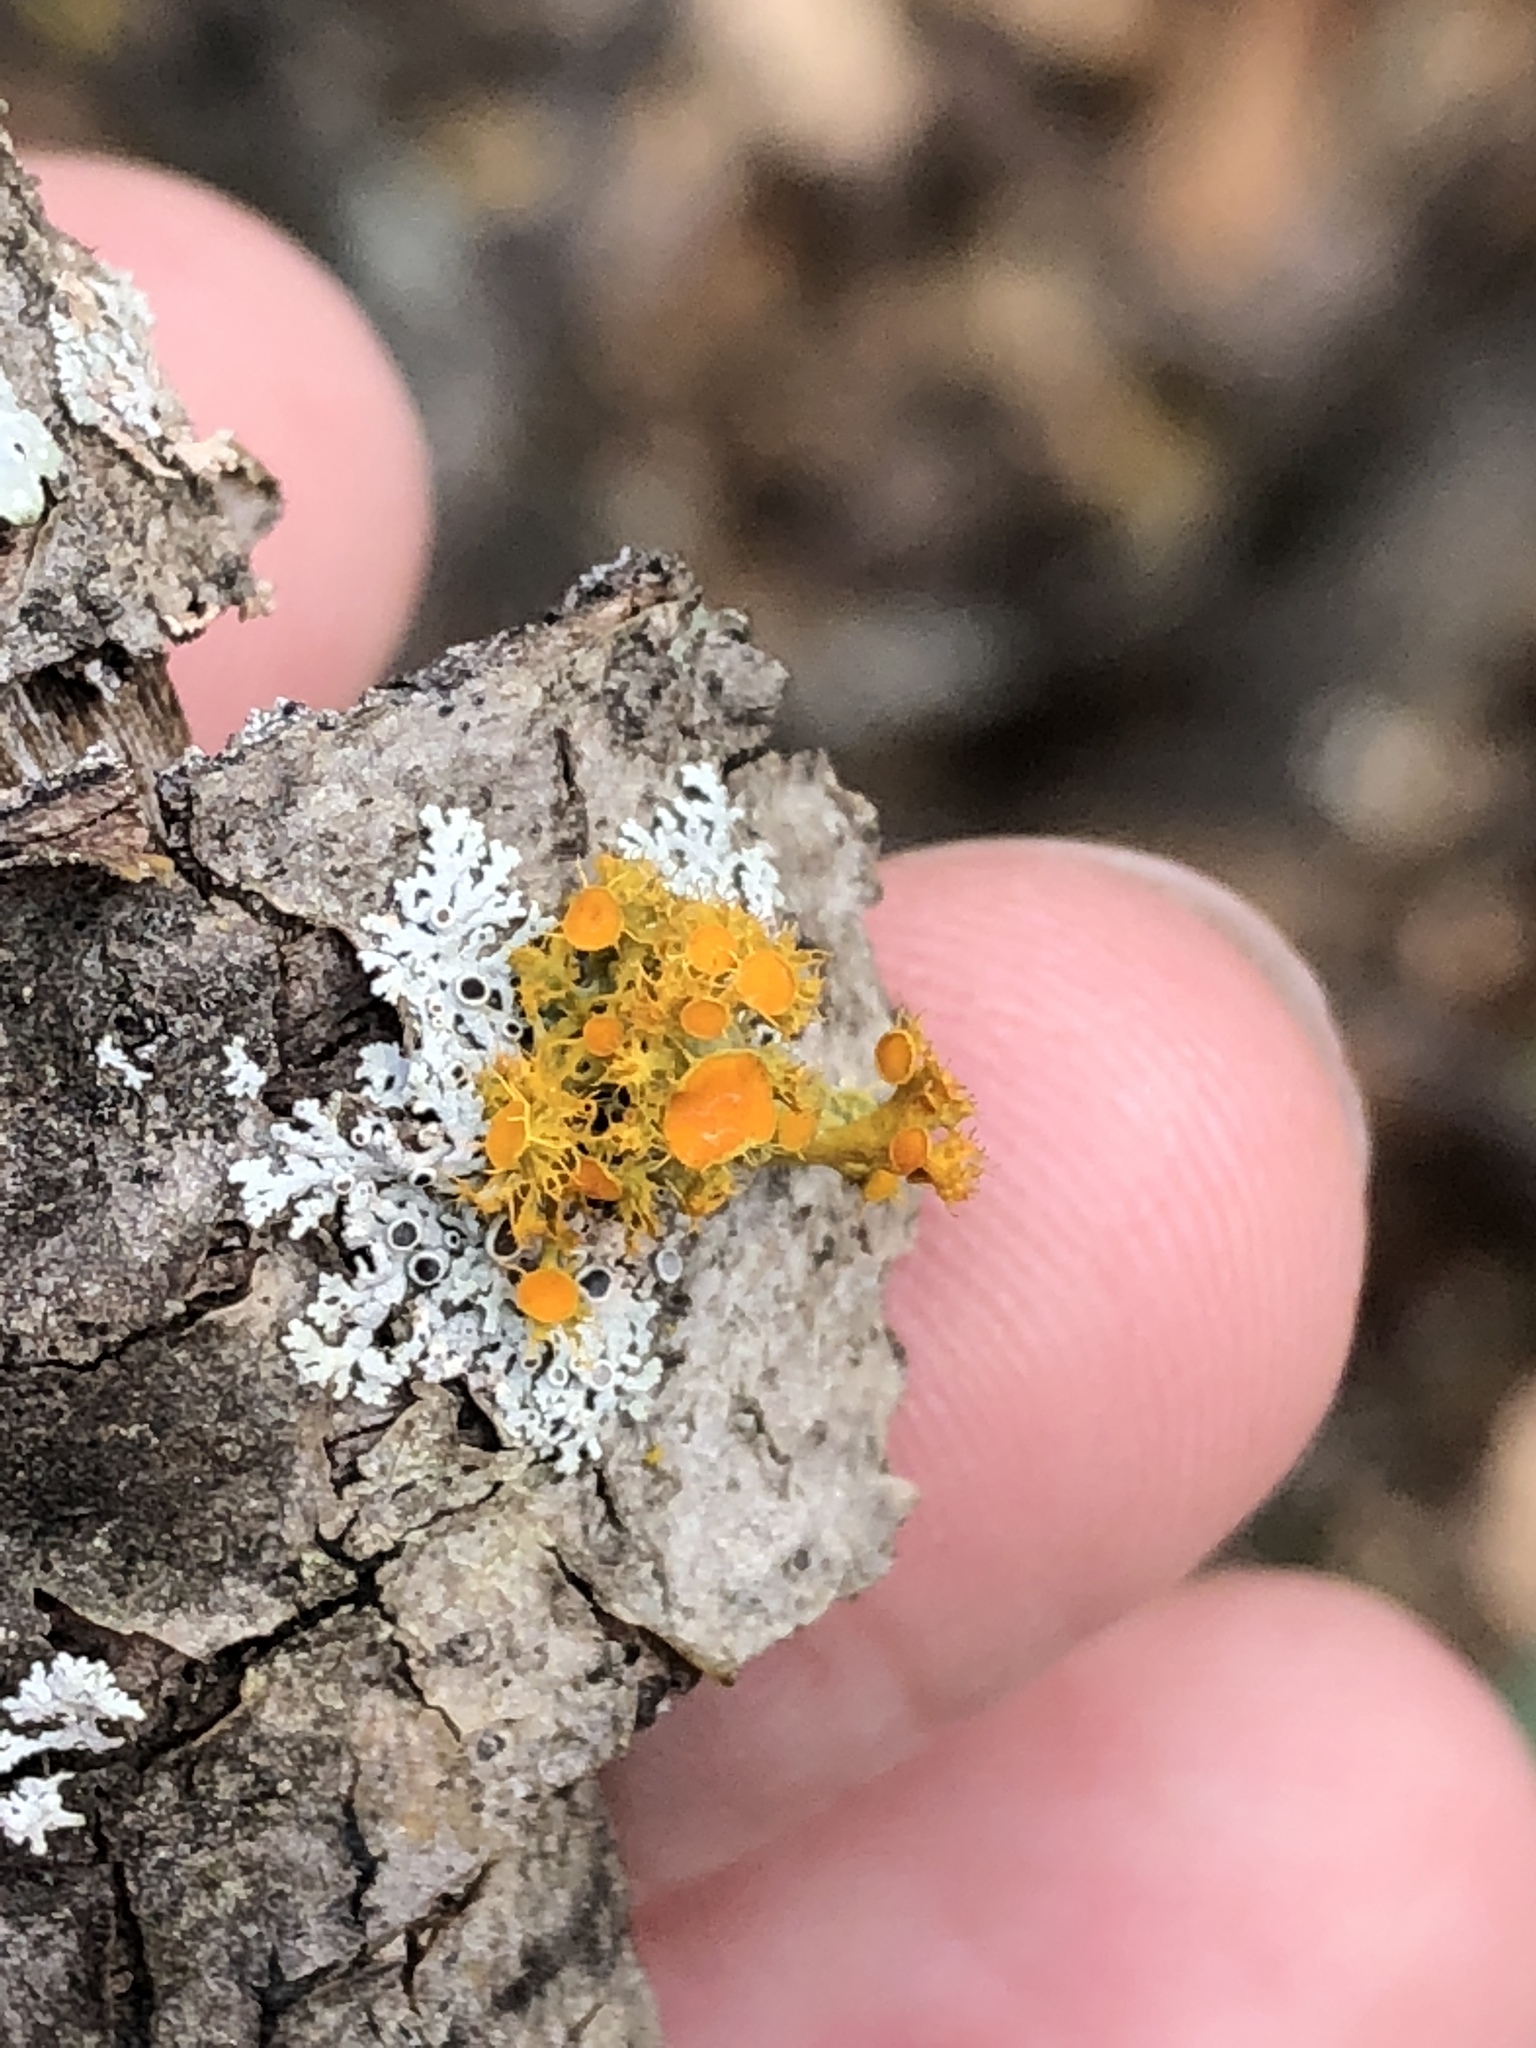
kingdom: Fungi
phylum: Ascomycota
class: Lecanoromycetes
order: Teloschistales
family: Teloschistaceae
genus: Niorma
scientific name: Niorma chrysophthalma
